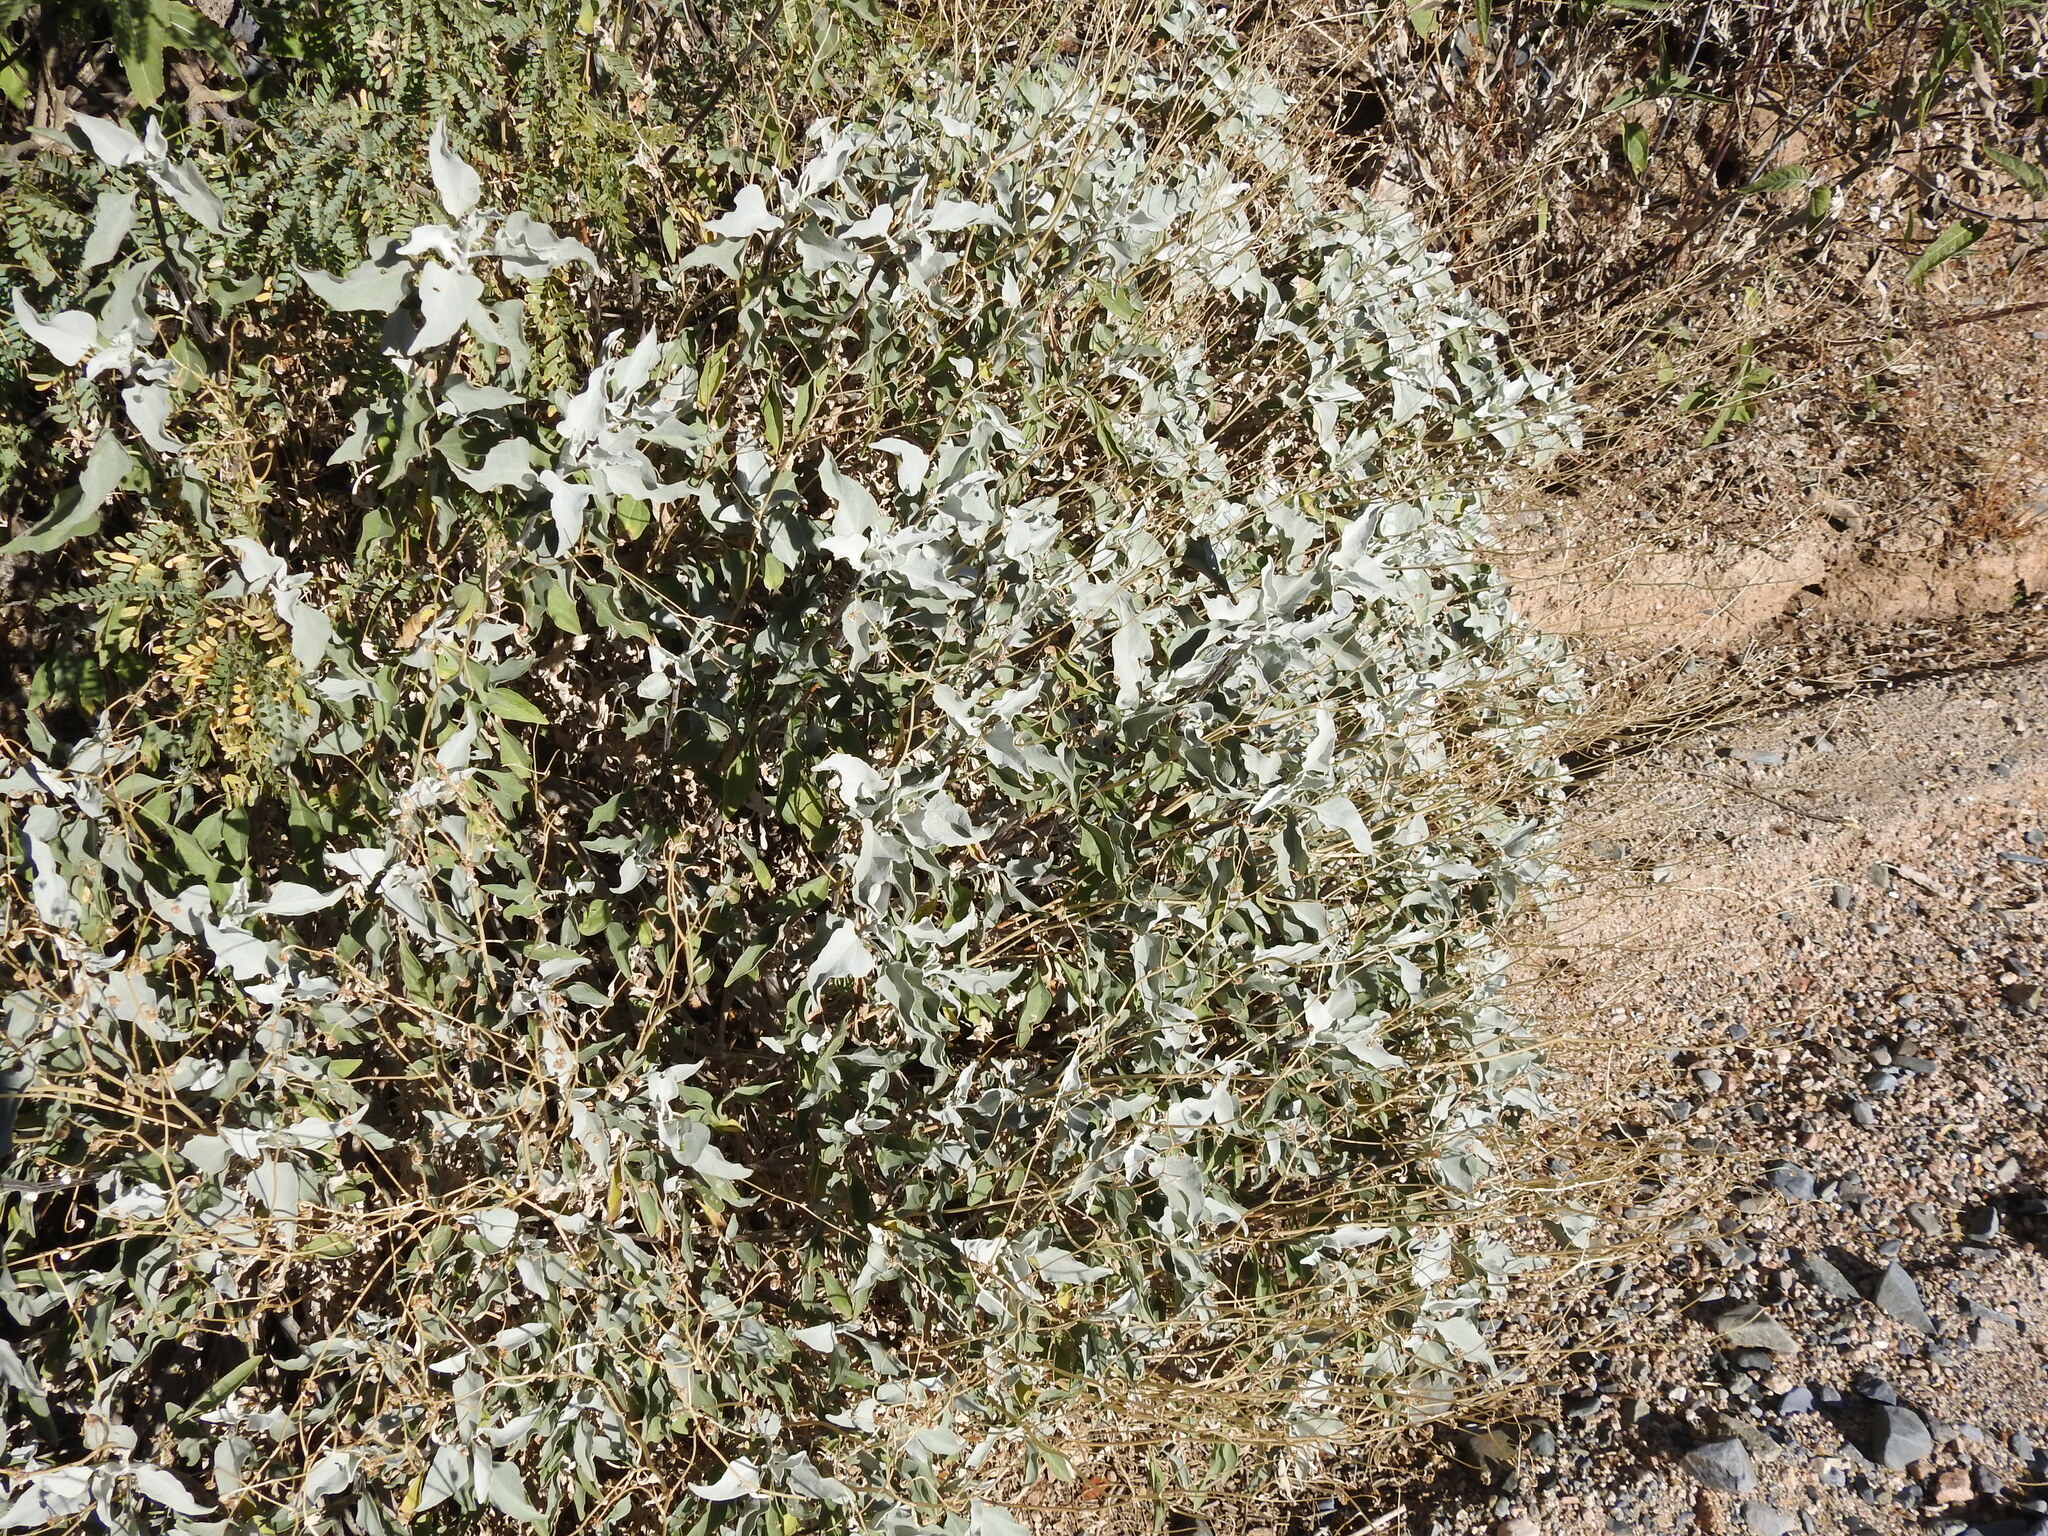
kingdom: Plantae
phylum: Tracheophyta
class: Magnoliopsida
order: Asterales
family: Asteraceae
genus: Encelia
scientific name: Encelia farinosa
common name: Brittlebush
